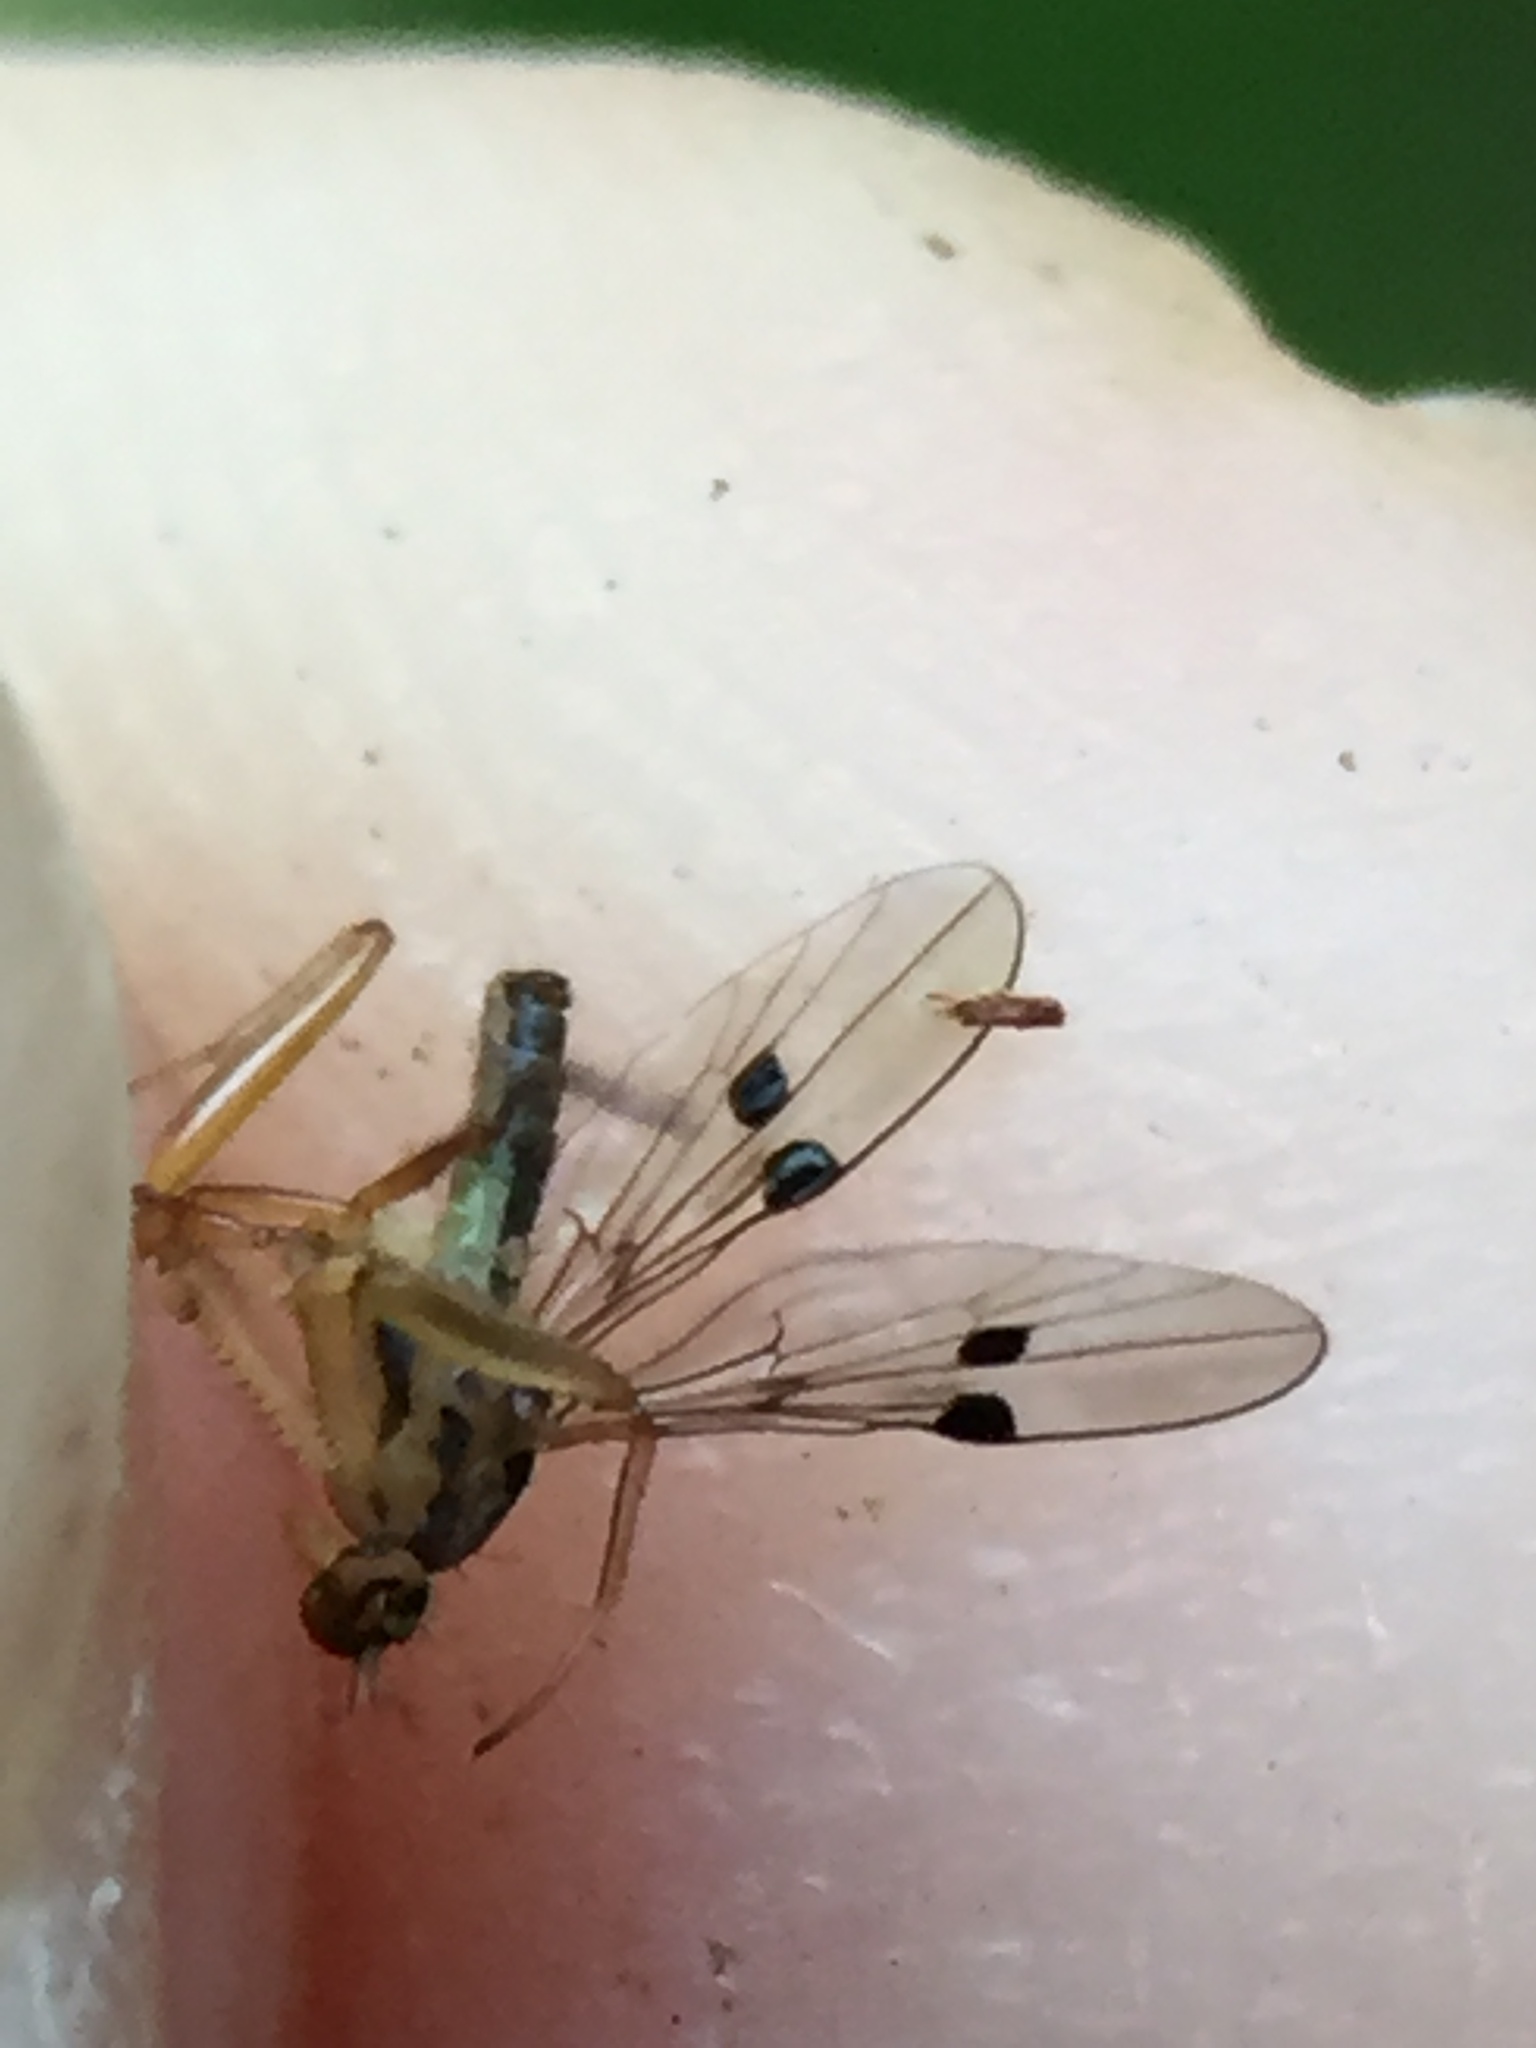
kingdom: Animalia
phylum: Arthropoda
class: Insecta
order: Diptera
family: Empididae
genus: Chelipoda
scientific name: Chelipoda mirabilis
